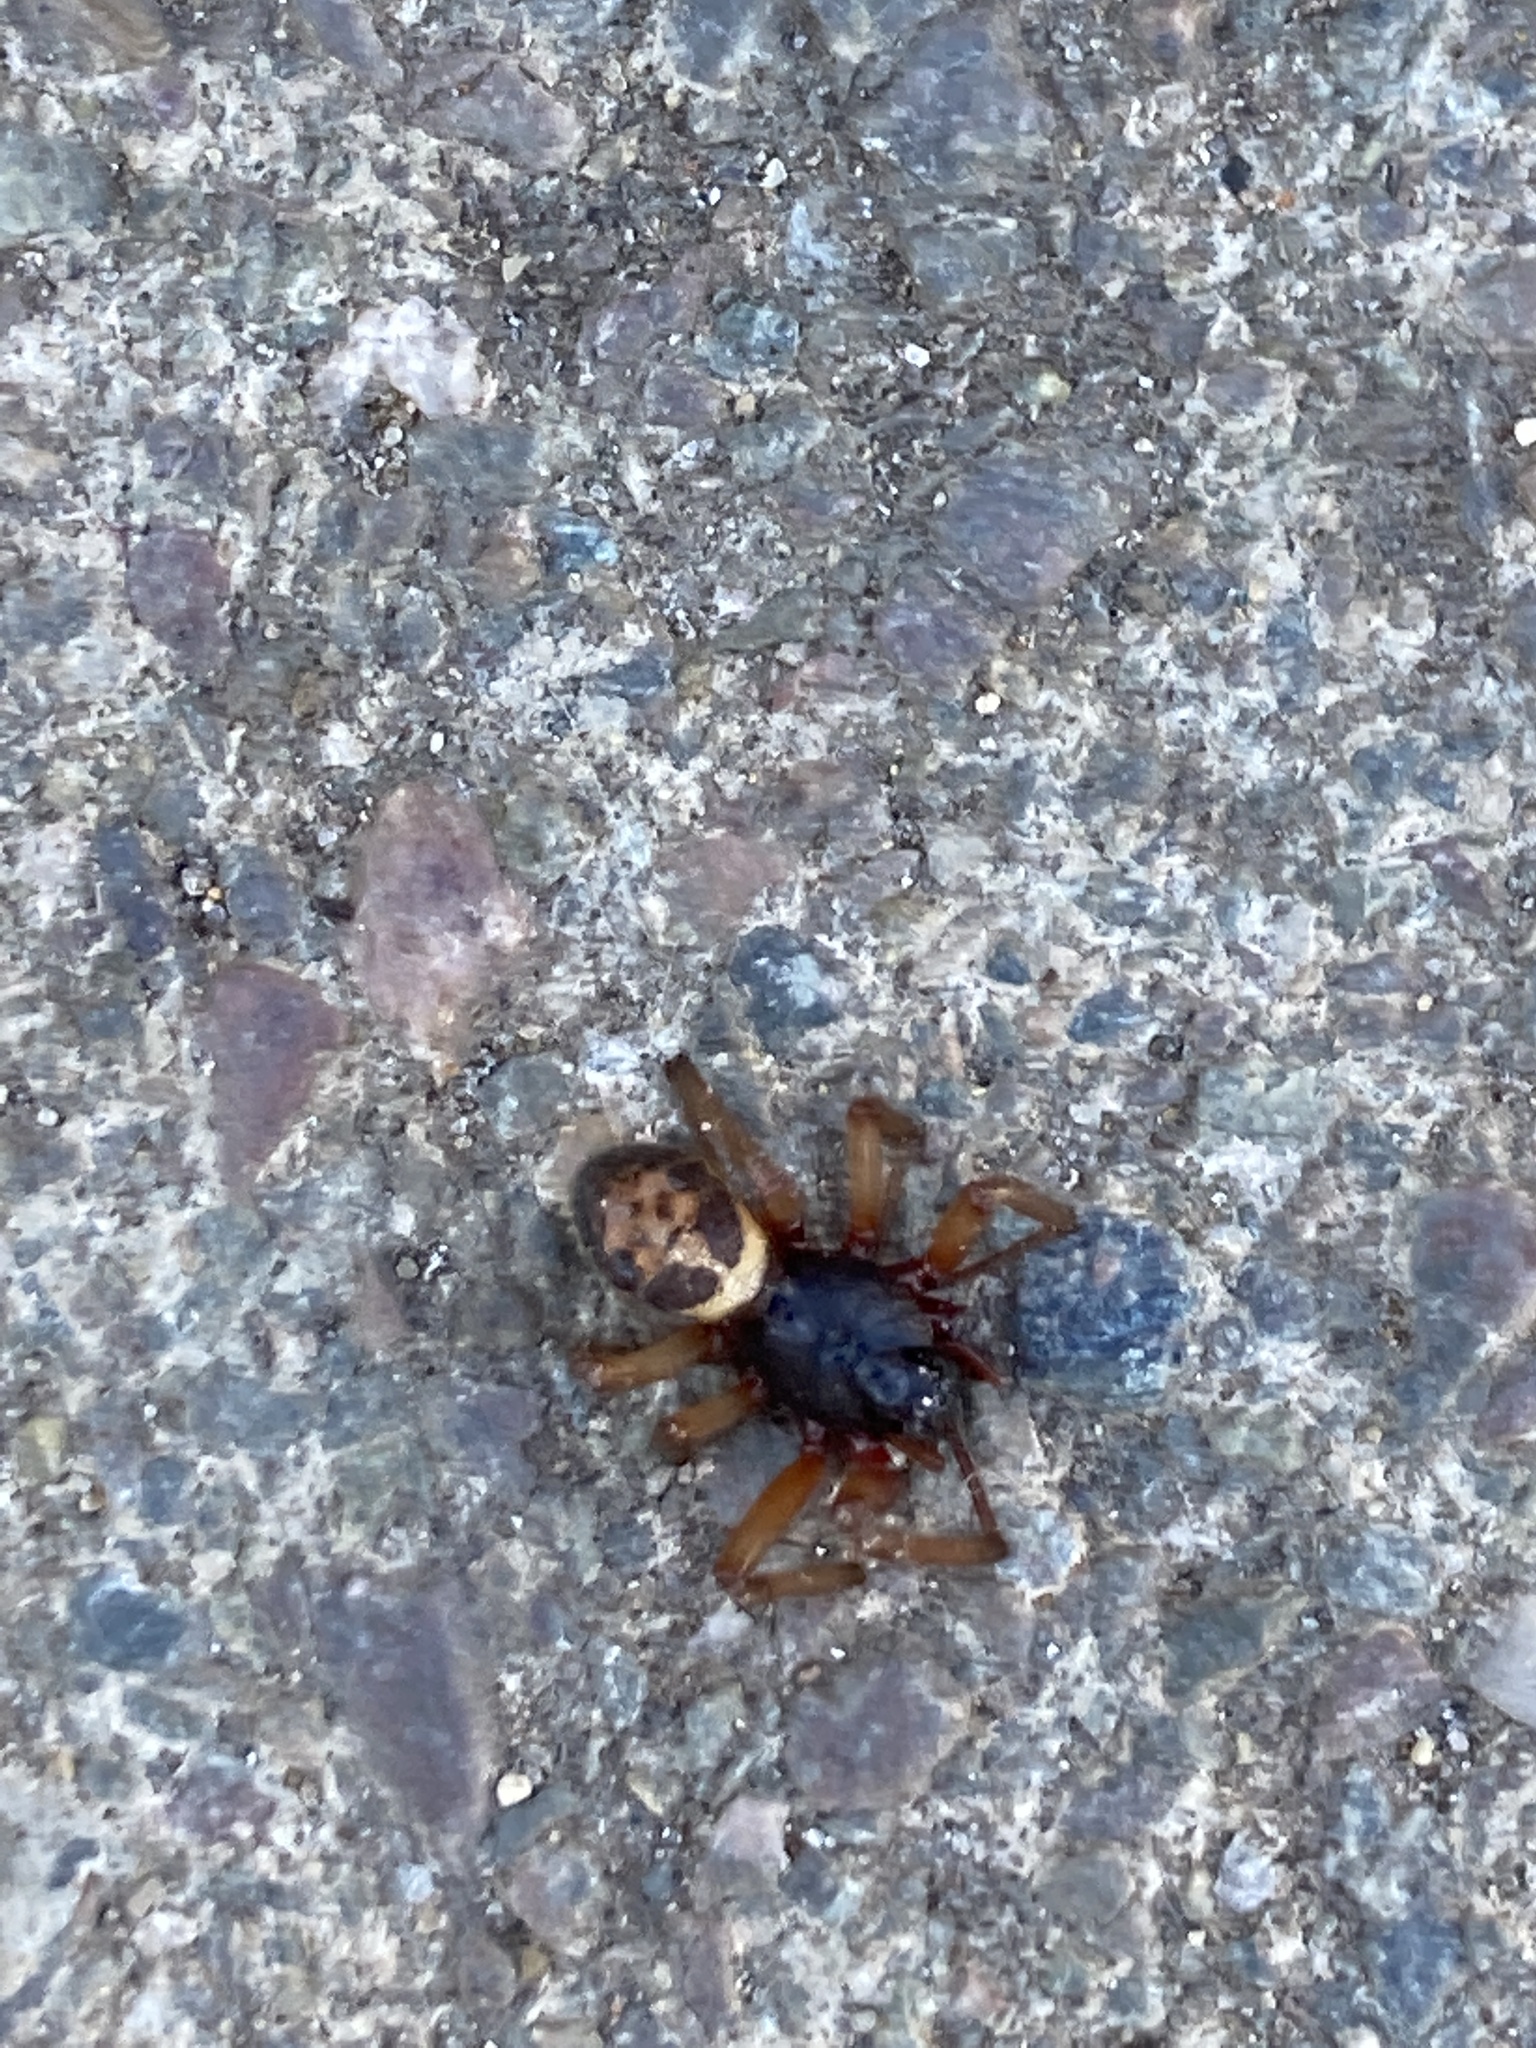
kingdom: Animalia
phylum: Arthropoda
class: Arachnida
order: Araneae
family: Theridiidae
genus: Steatoda
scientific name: Steatoda nobilis
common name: Cobweb weaver
